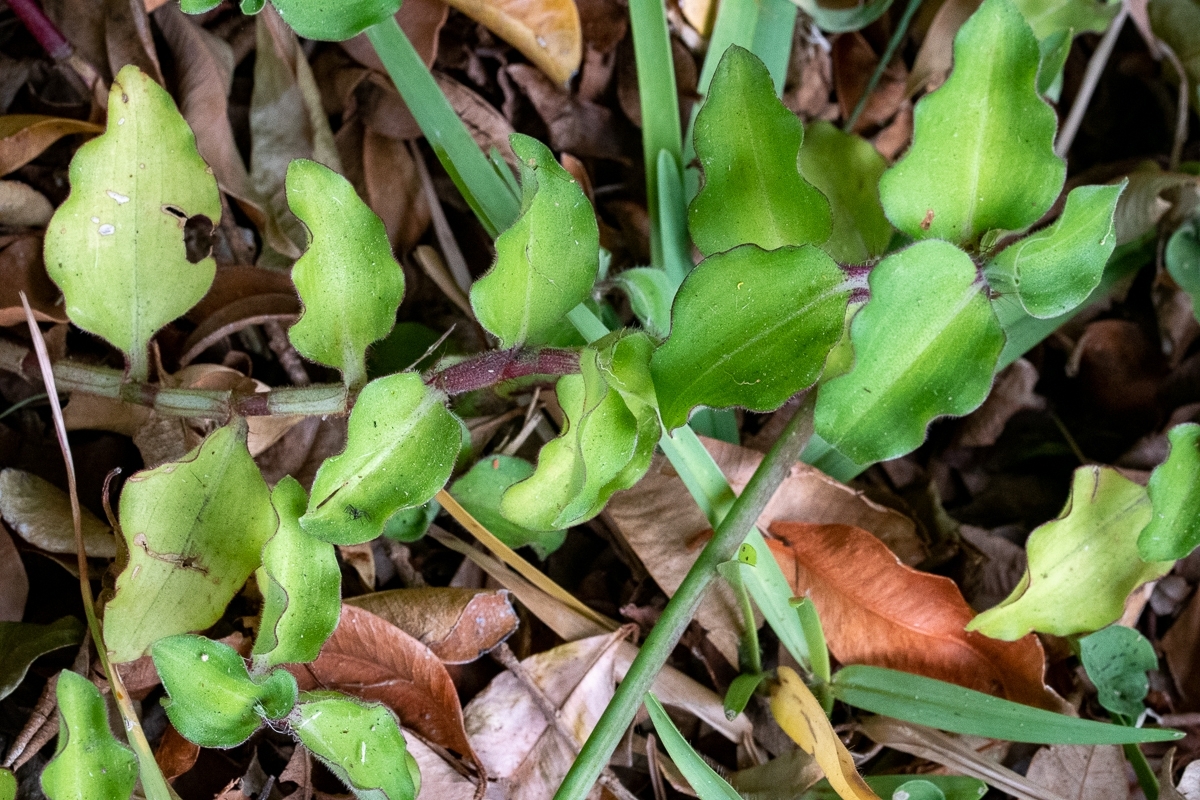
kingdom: Plantae
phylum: Tracheophyta
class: Liliopsida
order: Commelinales
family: Commelinaceae
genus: Commelina
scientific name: Commelina benghalensis
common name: Jio
